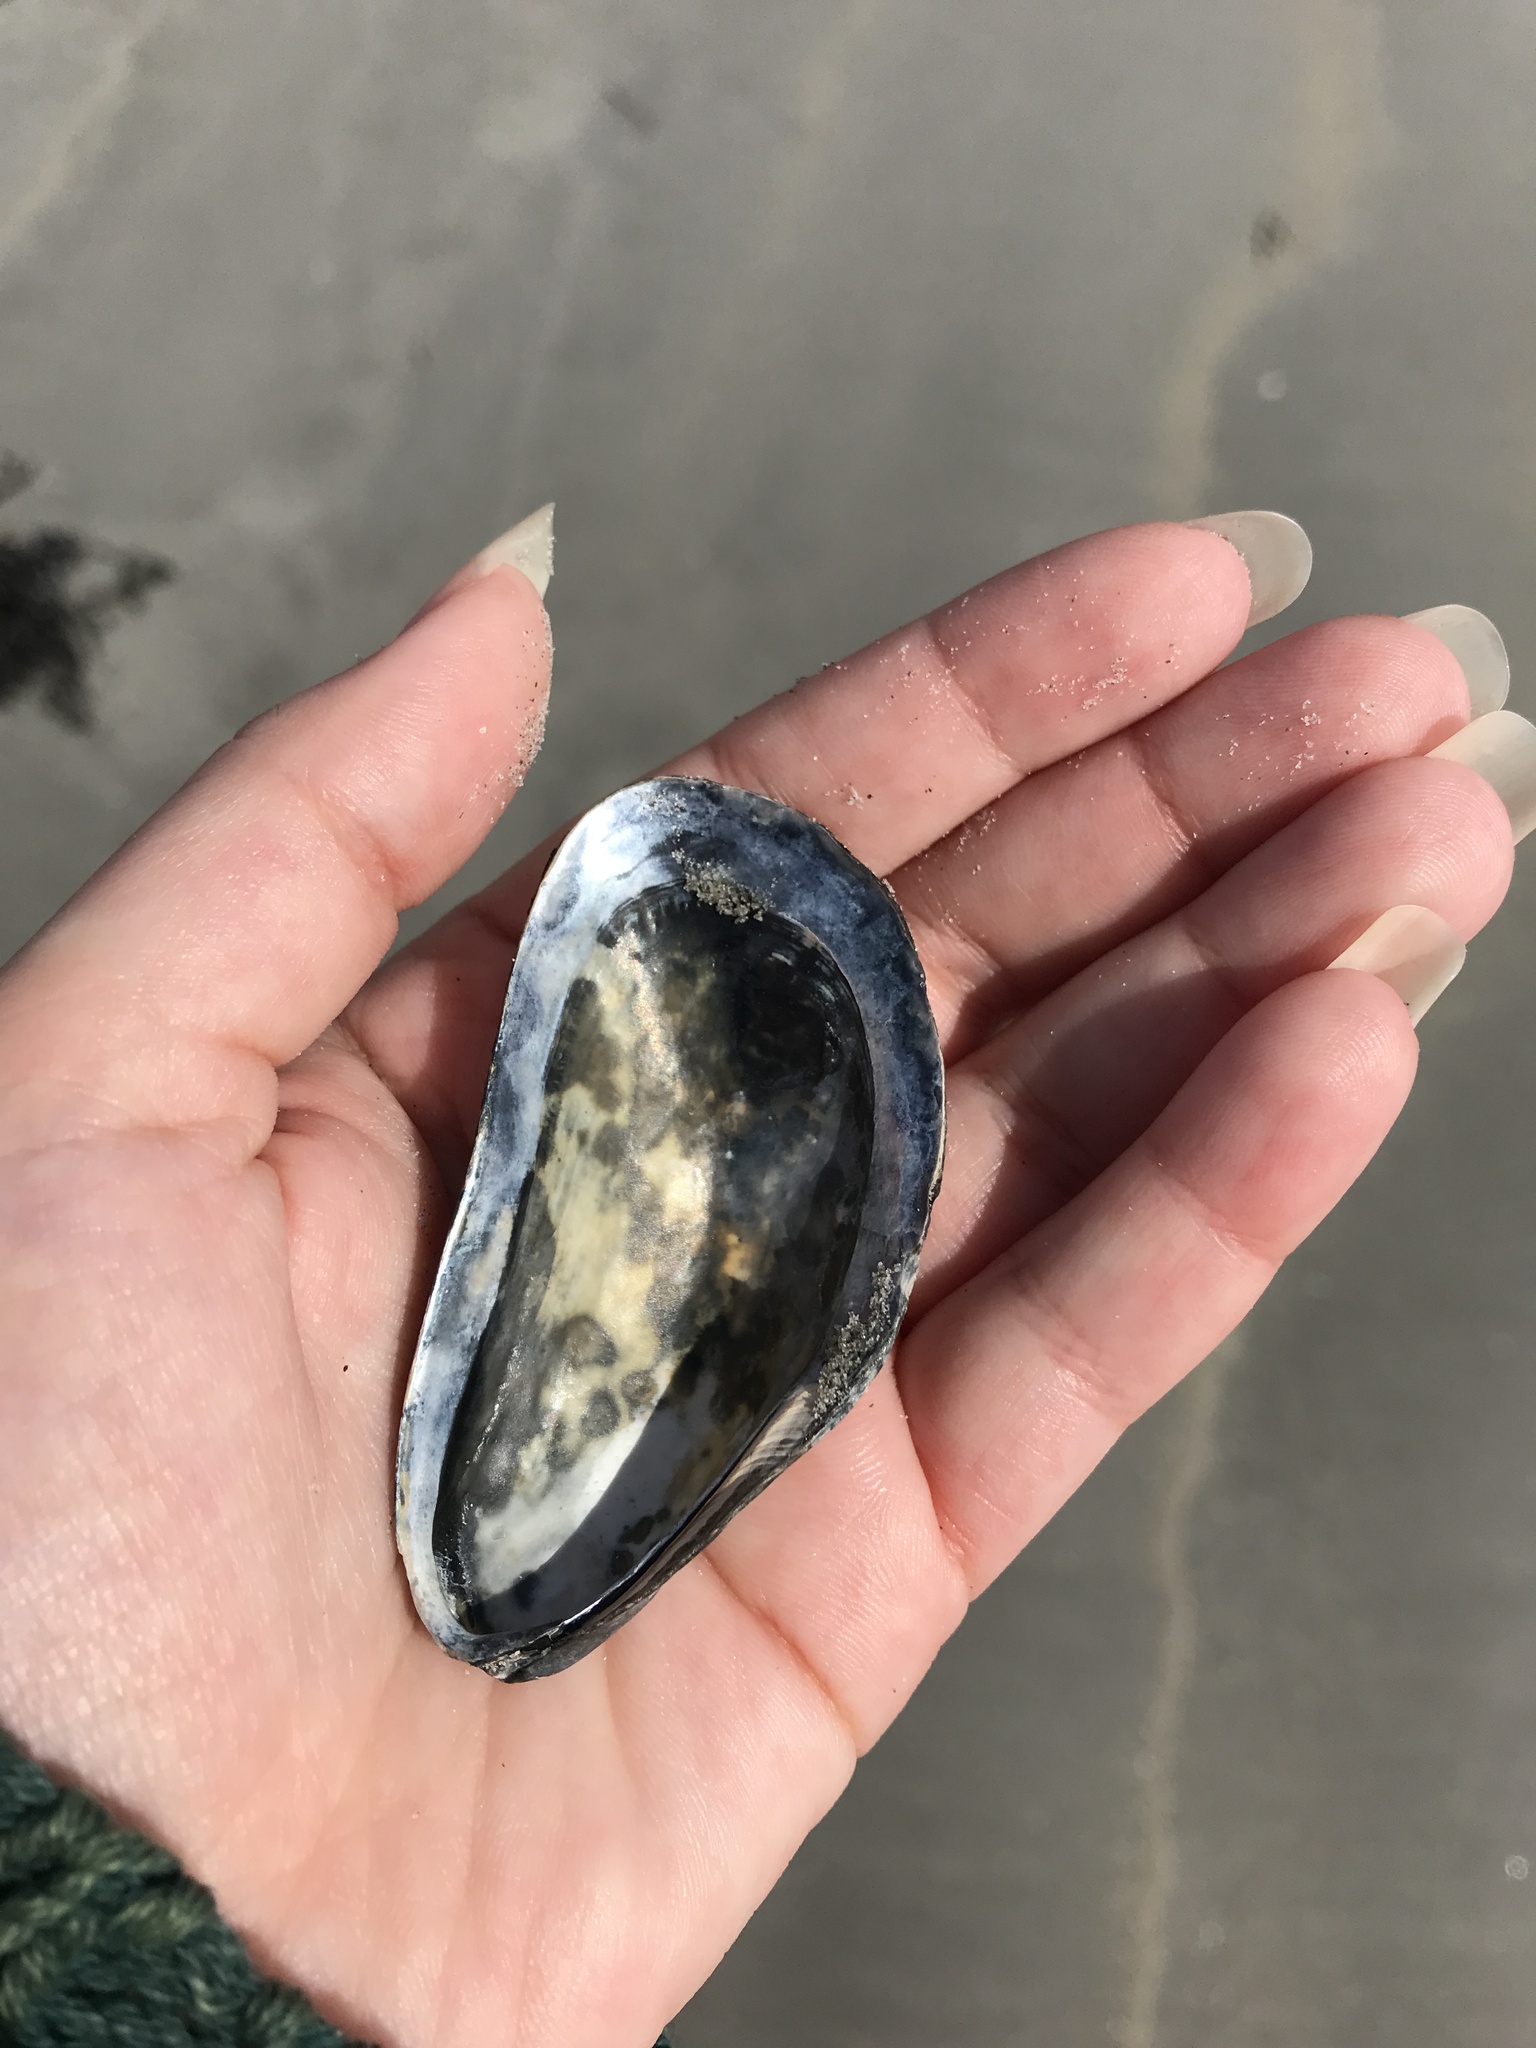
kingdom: Animalia
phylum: Mollusca
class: Bivalvia
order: Mytilida
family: Mytilidae
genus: Modiolus
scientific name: Modiolus modiolus
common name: Horse-mussel
